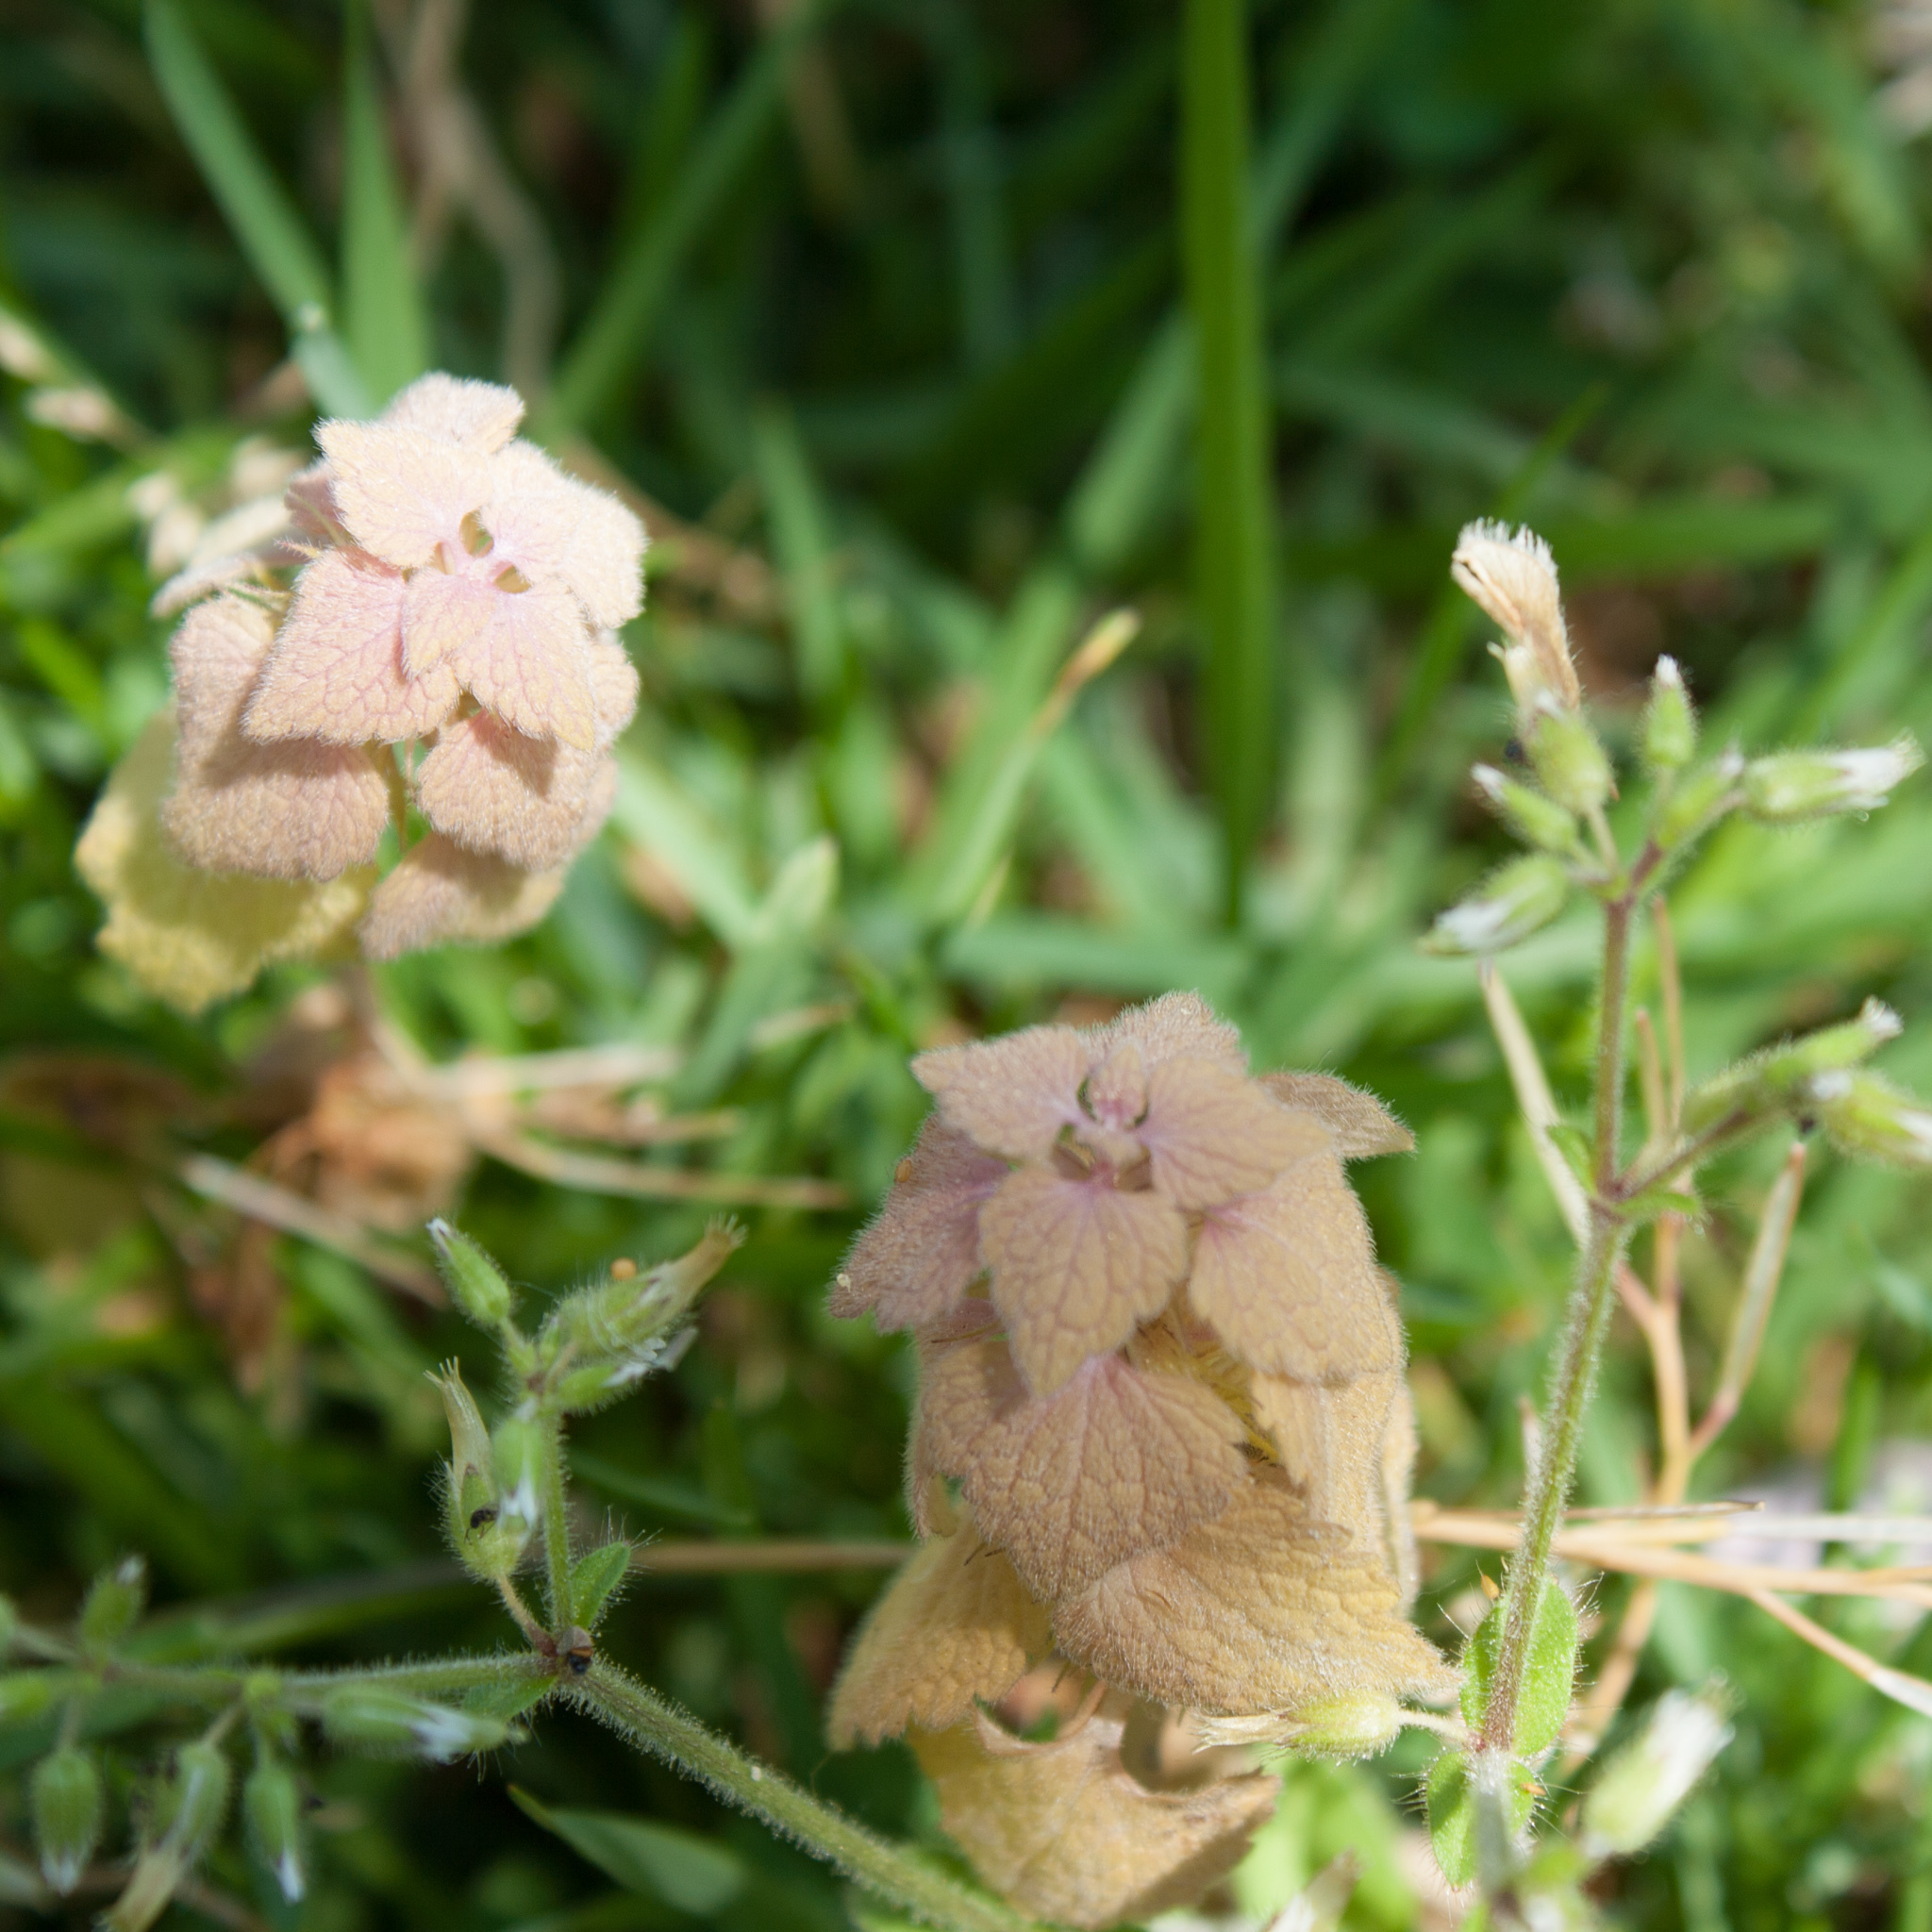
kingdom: Plantae
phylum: Tracheophyta
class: Magnoliopsida
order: Lamiales
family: Lamiaceae
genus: Lamium
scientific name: Lamium purpureum
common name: Red dead-nettle
